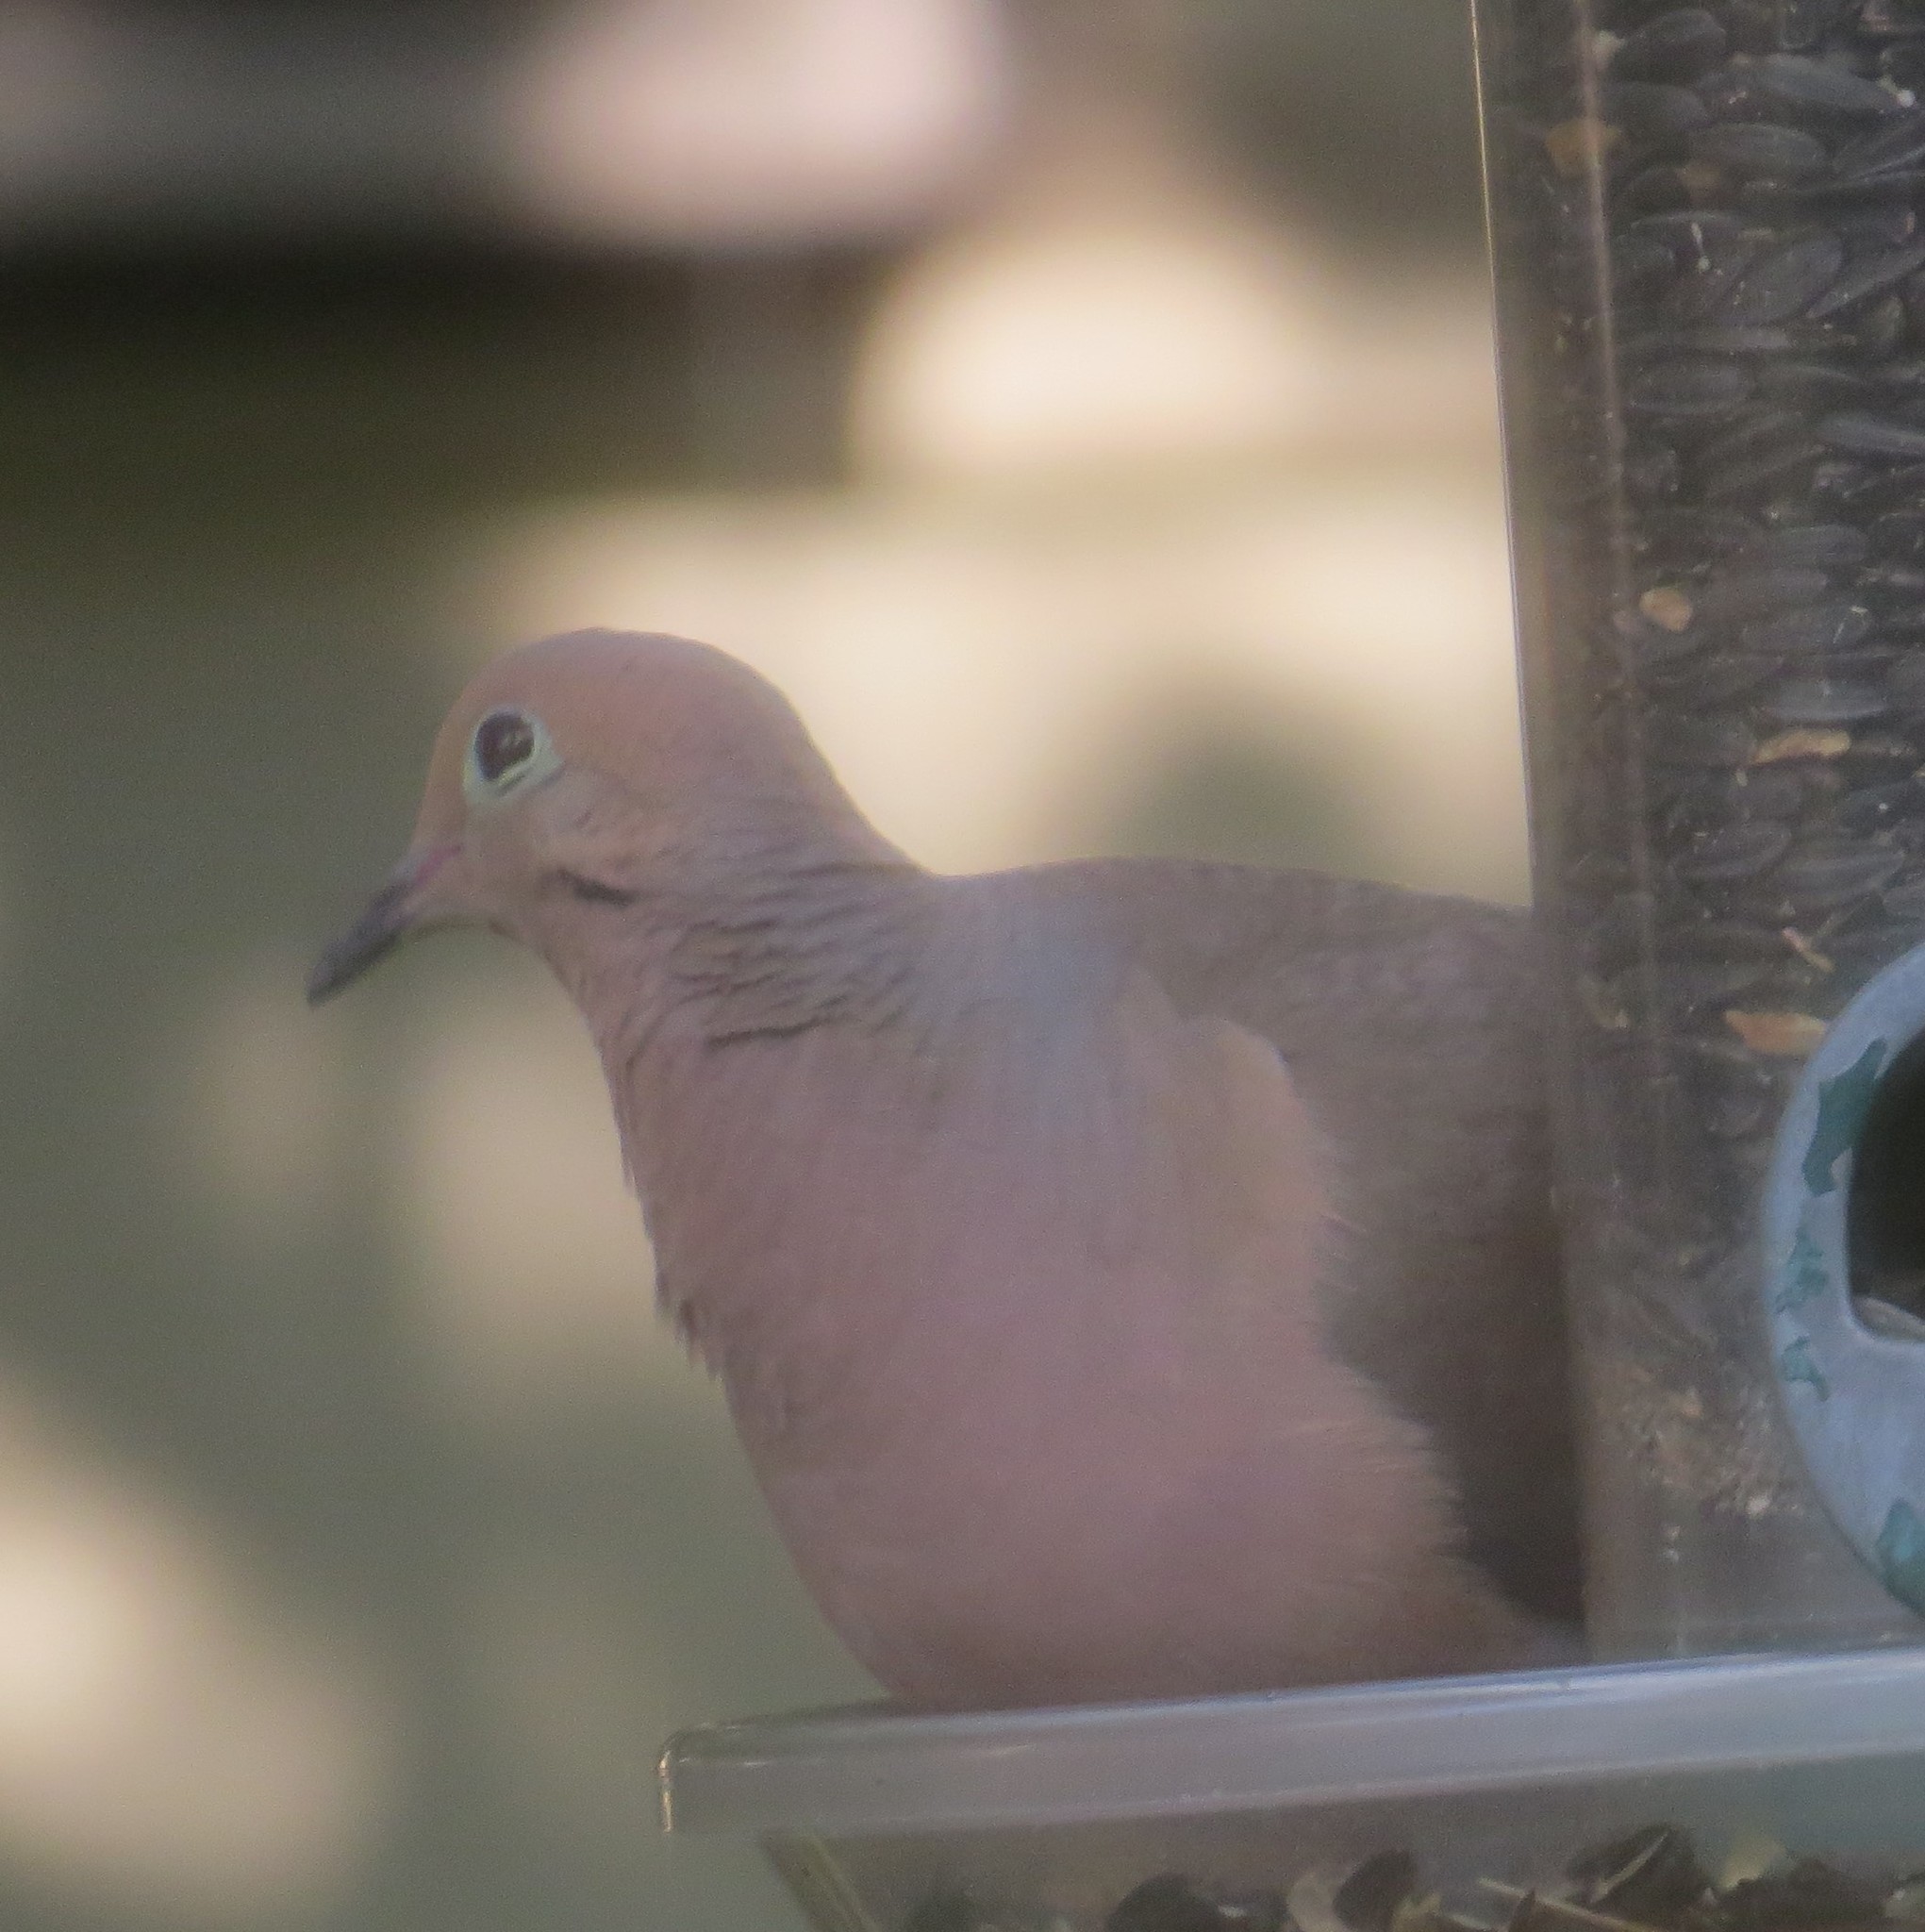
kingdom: Animalia
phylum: Chordata
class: Aves
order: Columbiformes
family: Columbidae
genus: Zenaida
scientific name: Zenaida macroura
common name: Mourning dove
